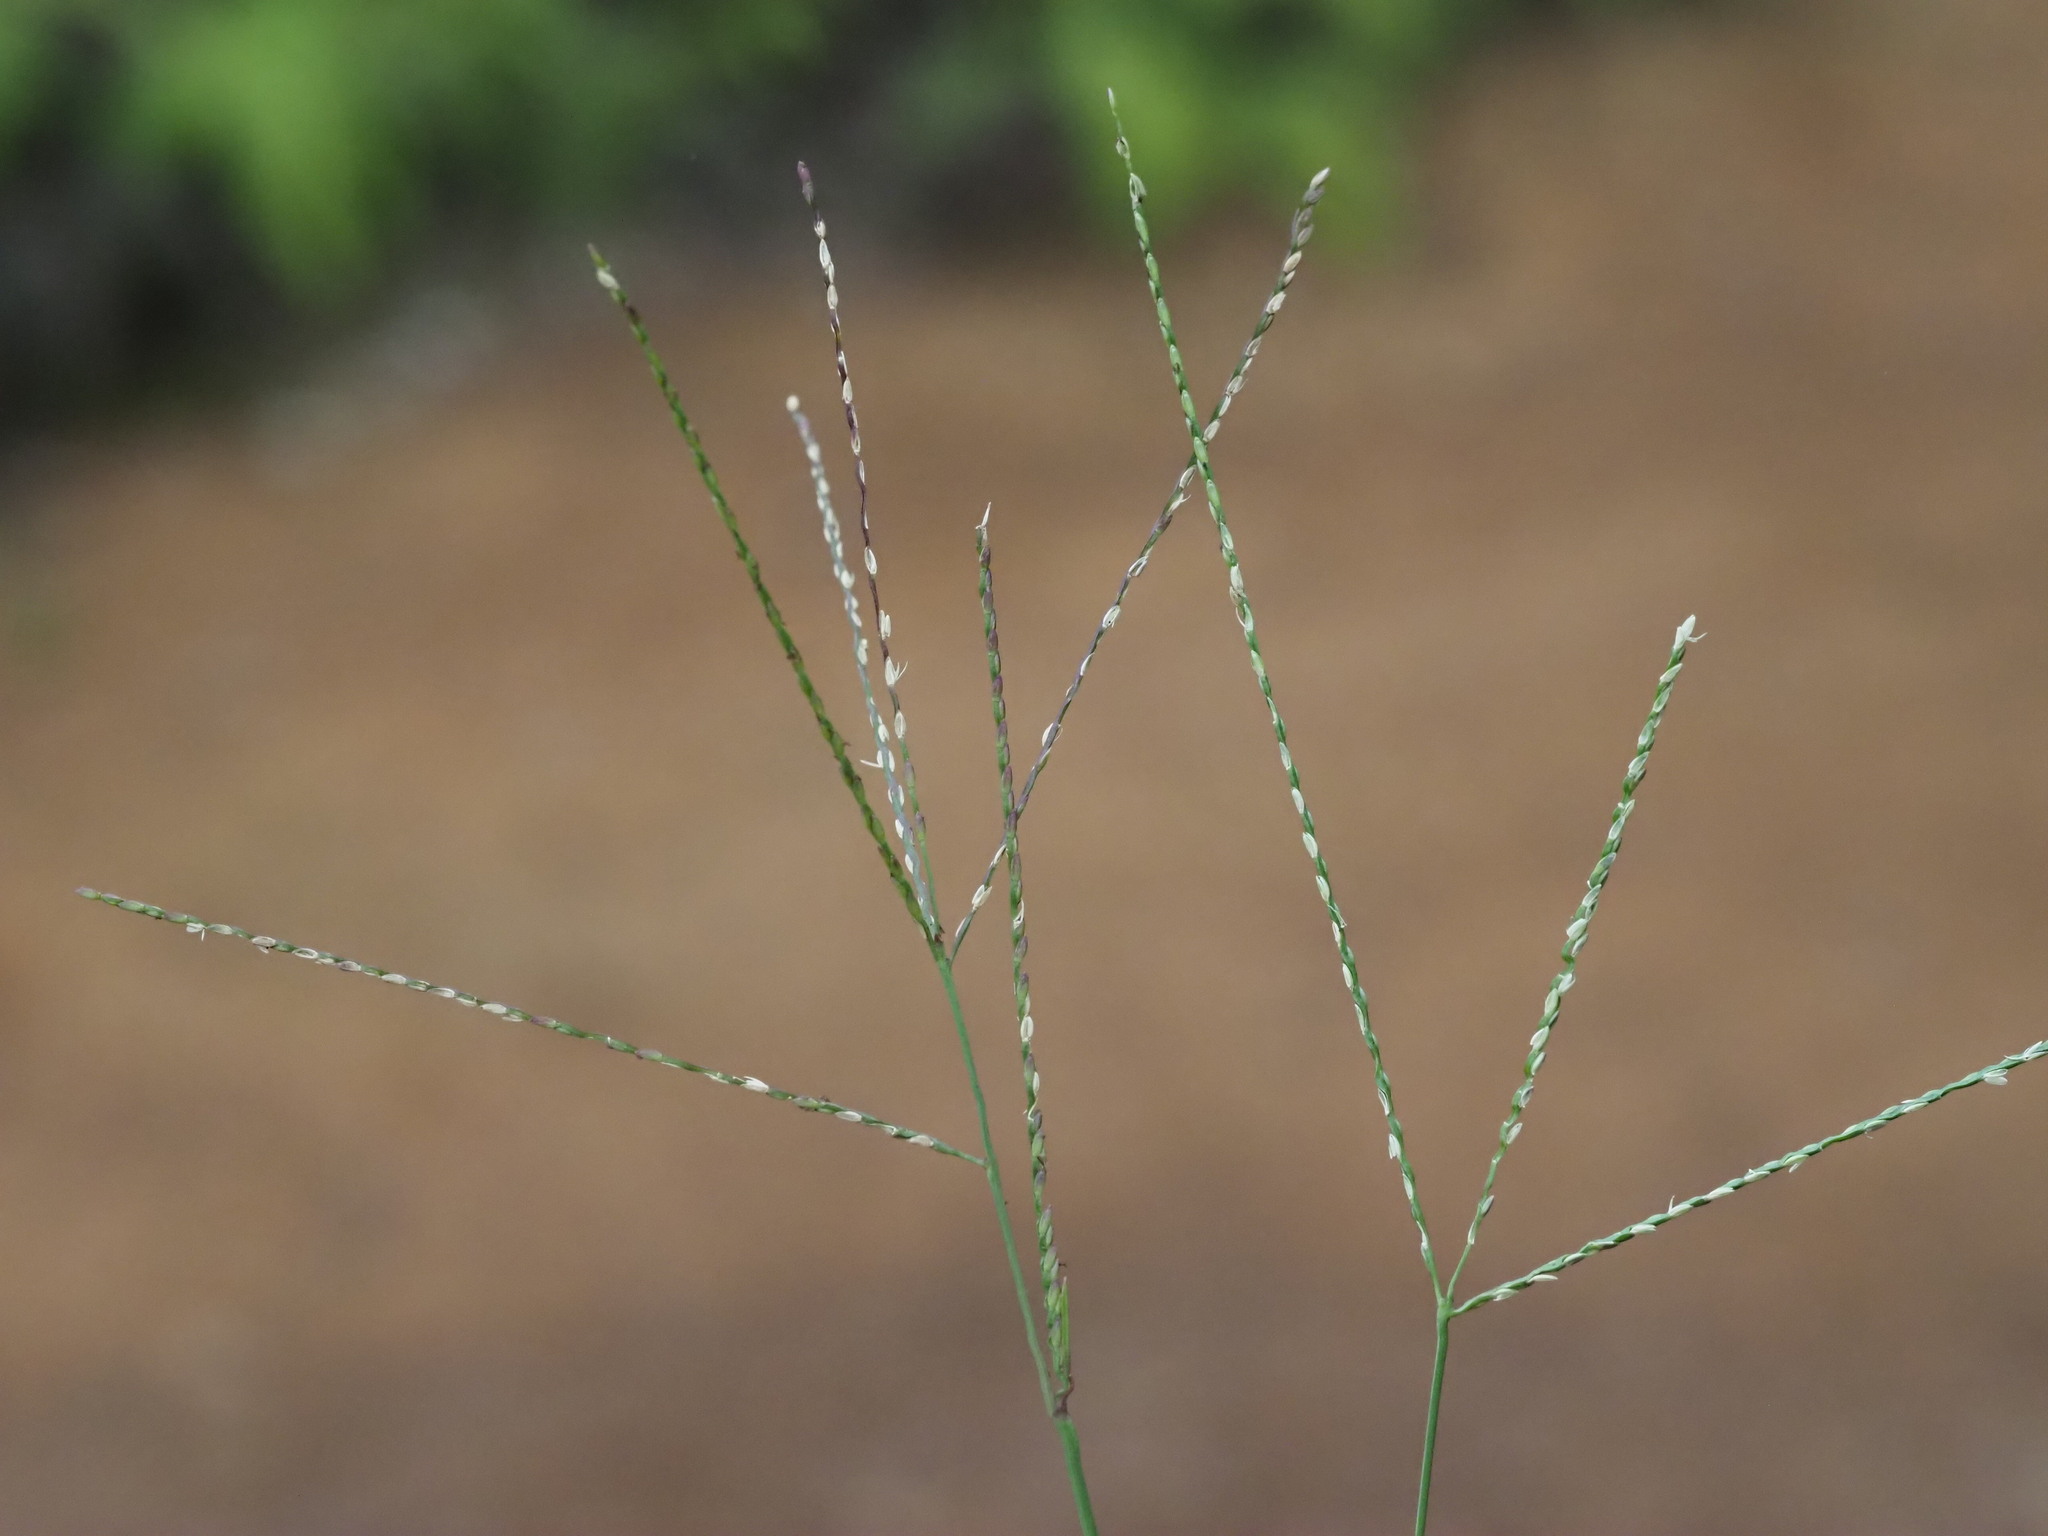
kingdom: Plantae
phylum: Tracheophyta
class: Liliopsida
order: Poales
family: Poaceae
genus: Axonopus
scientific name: Axonopus fissifolius
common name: Common carpetgrass
